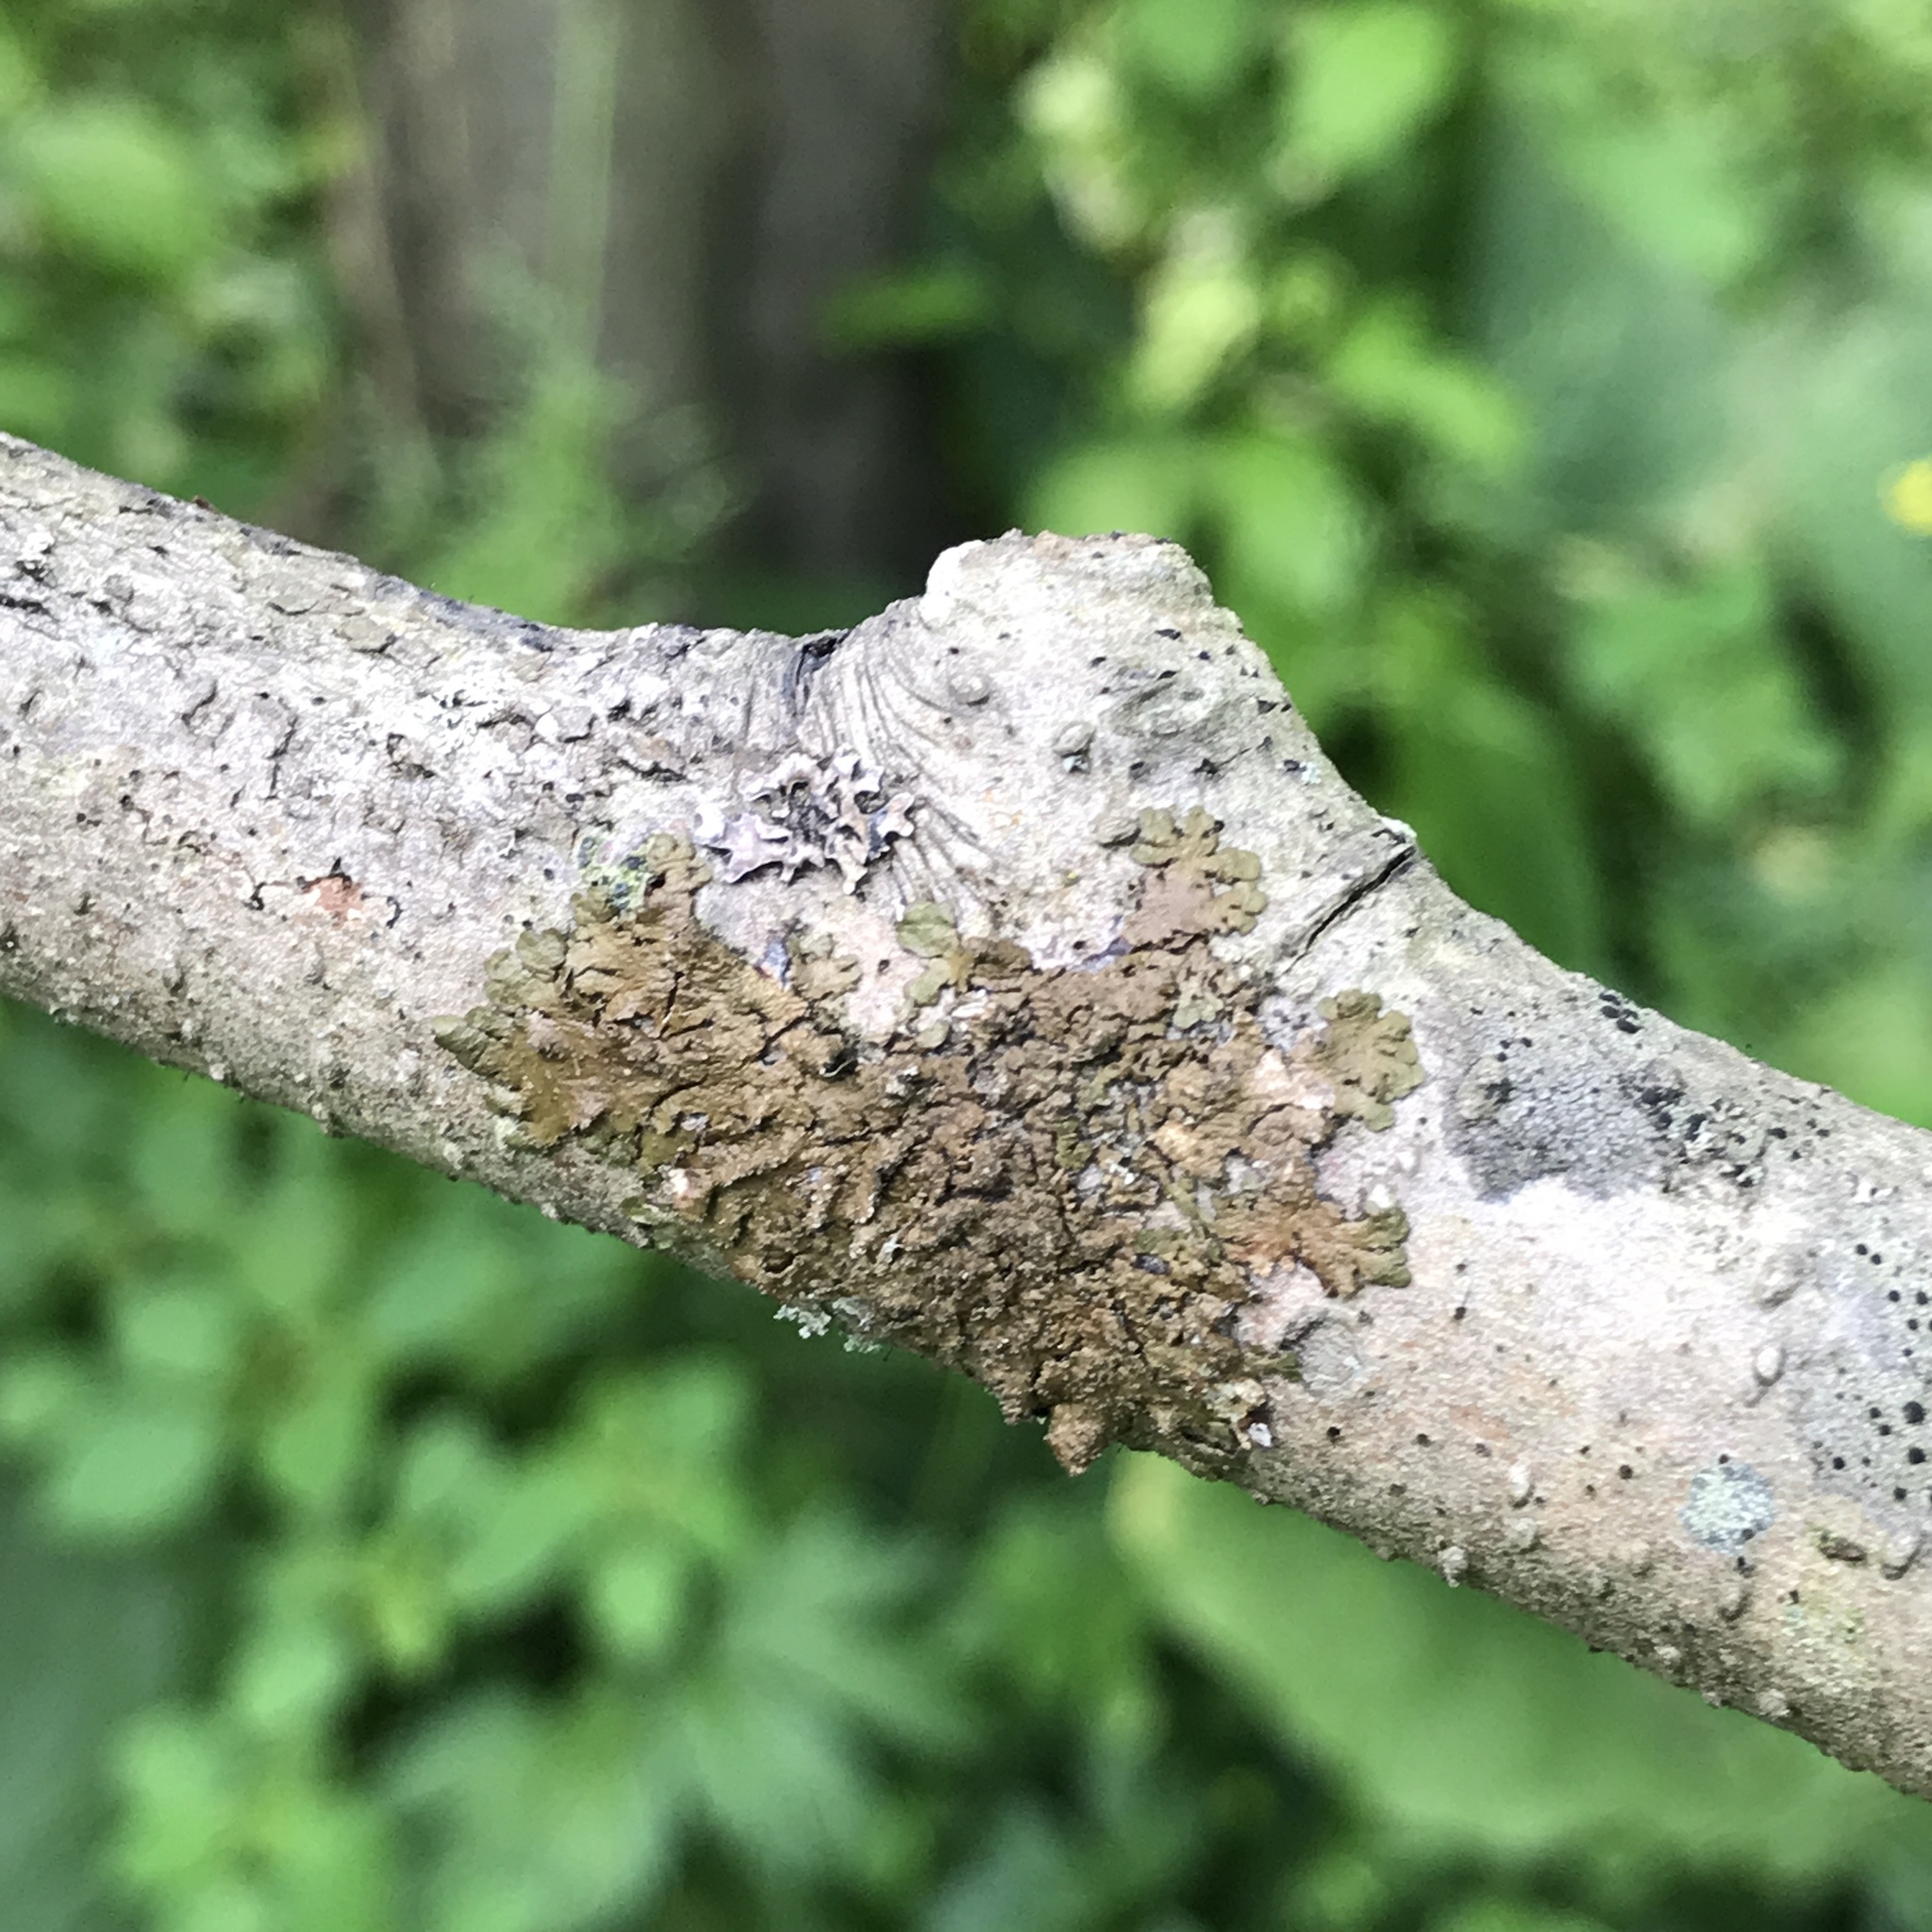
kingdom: Fungi
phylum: Ascomycota
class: Lecanoromycetes
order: Lecanorales
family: Parmeliaceae
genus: Melanelixia
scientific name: Melanelixia subaurifera
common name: Abraded camouflage lichen
